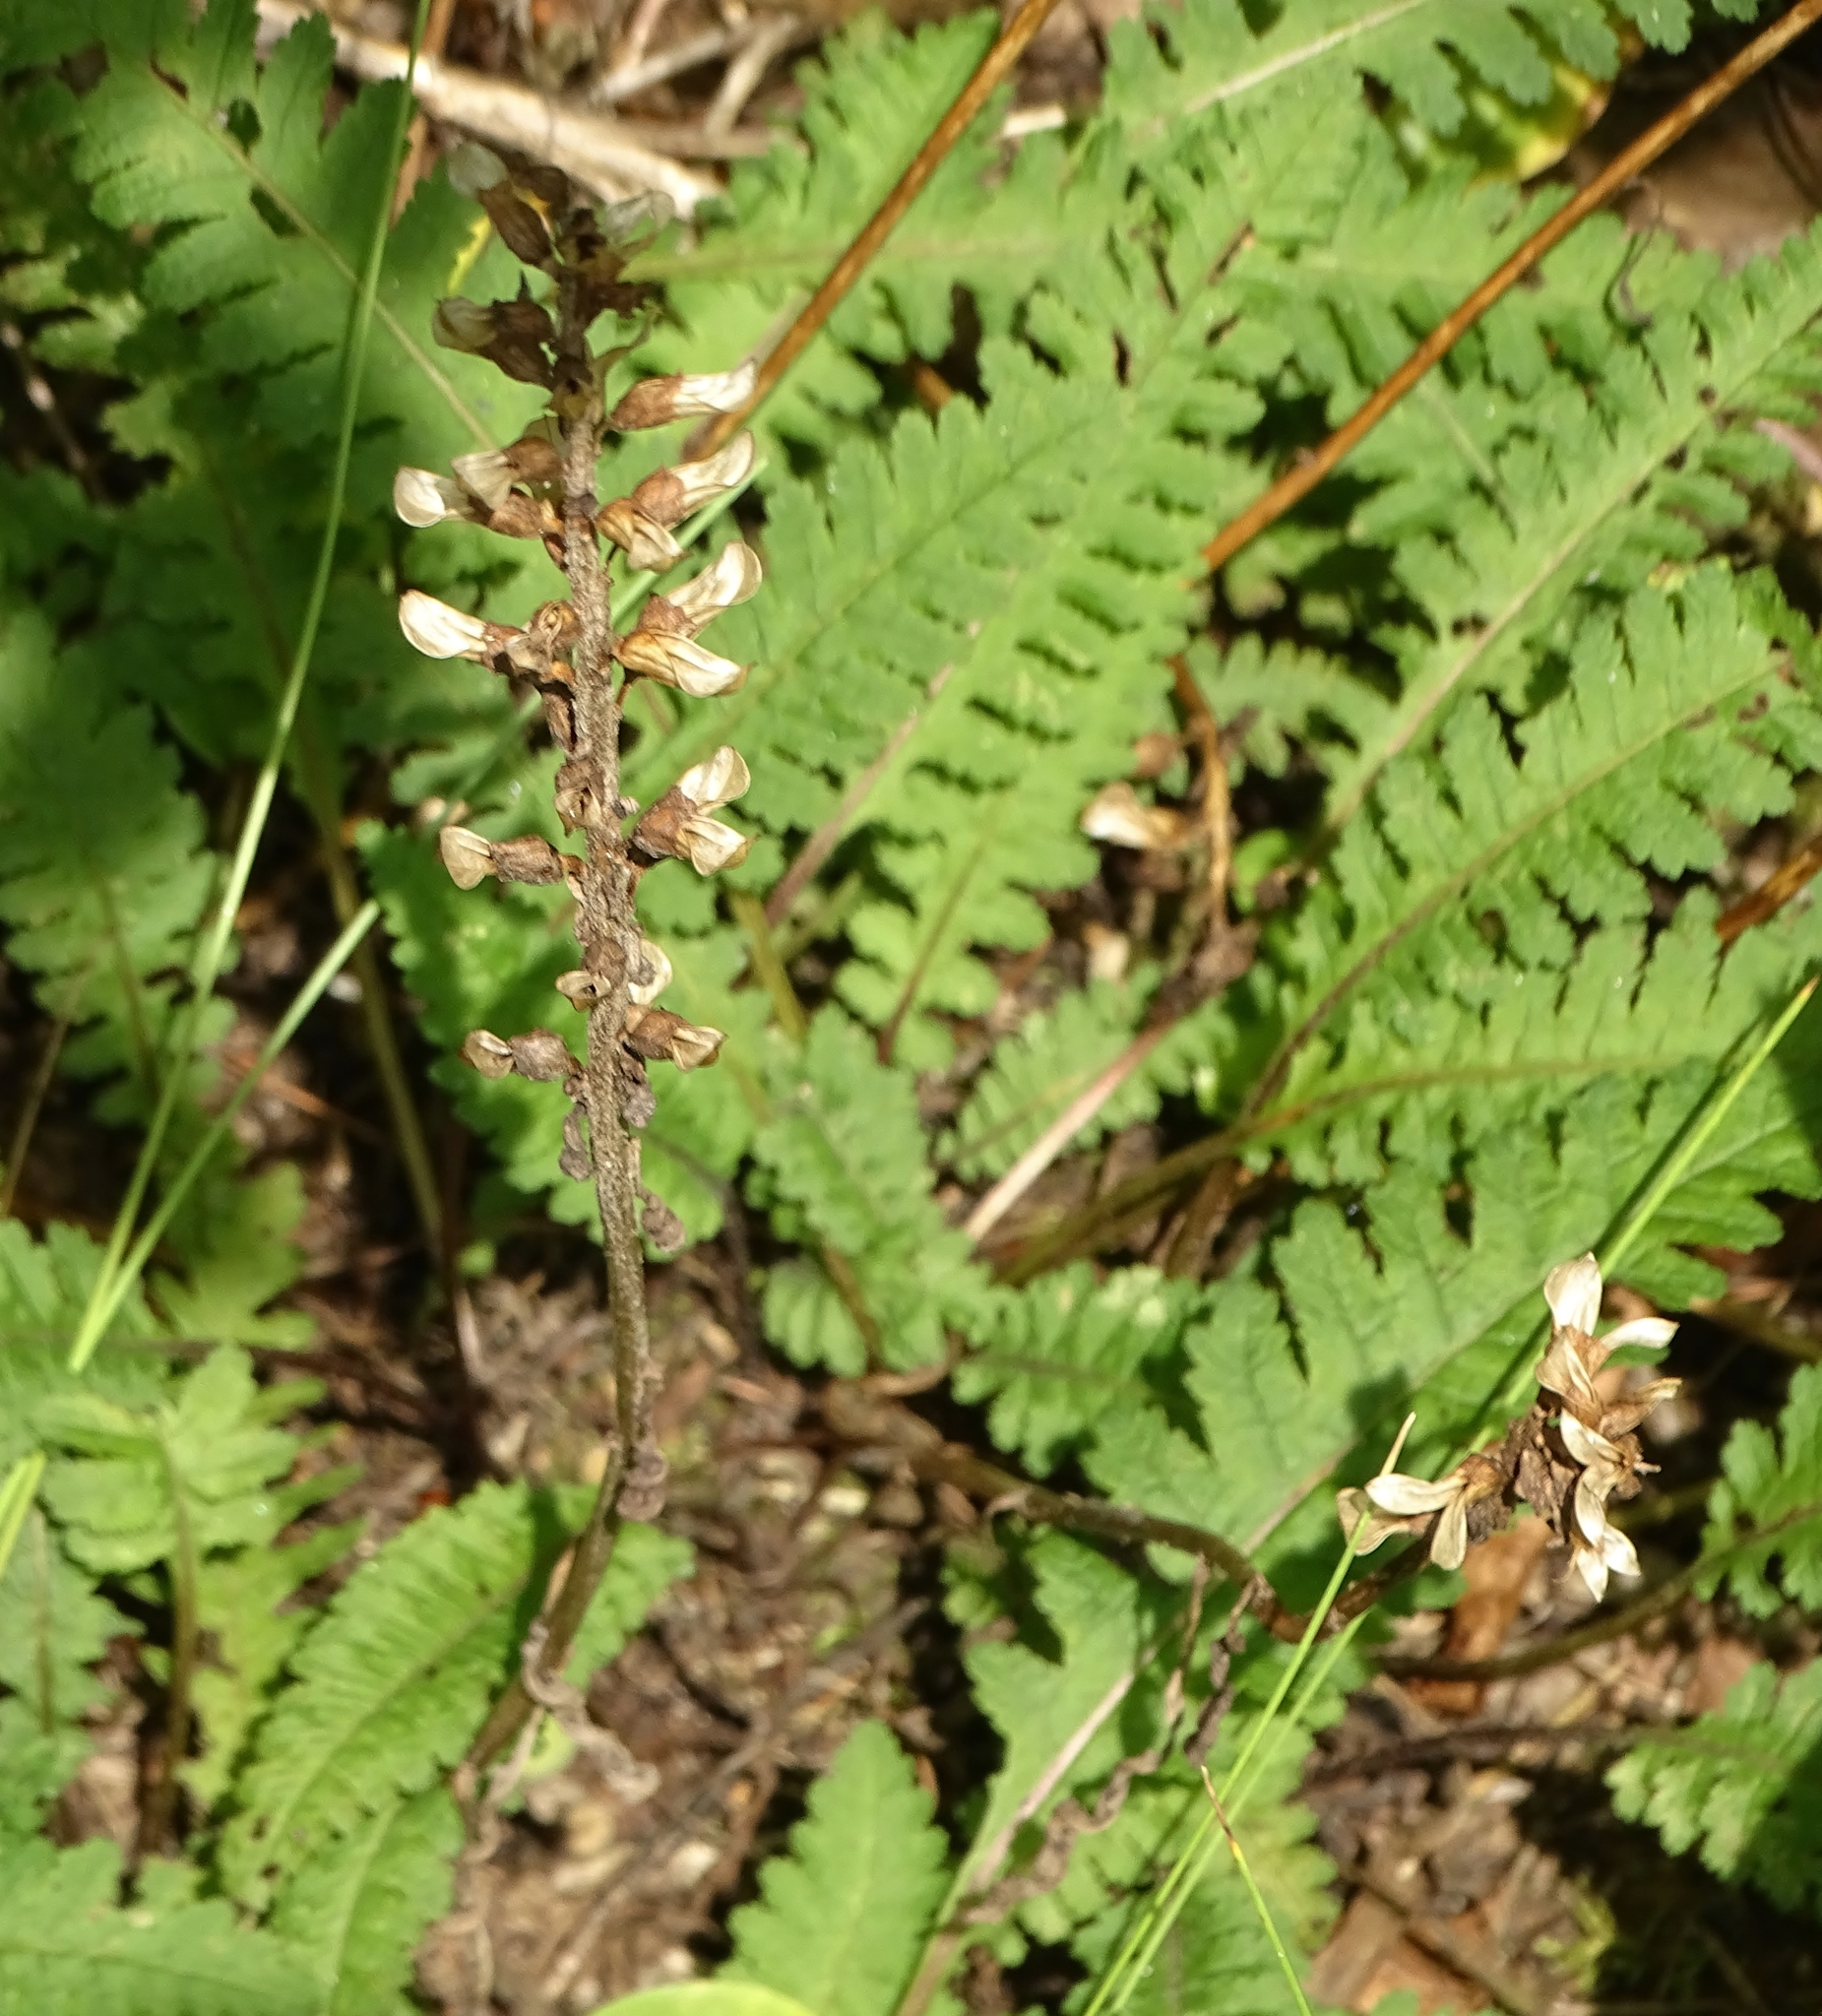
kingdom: Plantae
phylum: Tracheophyta
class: Magnoliopsida
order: Lamiales
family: Orobanchaceae
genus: Pedicularis
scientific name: Pedicularis canadensis
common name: Early lousewort
